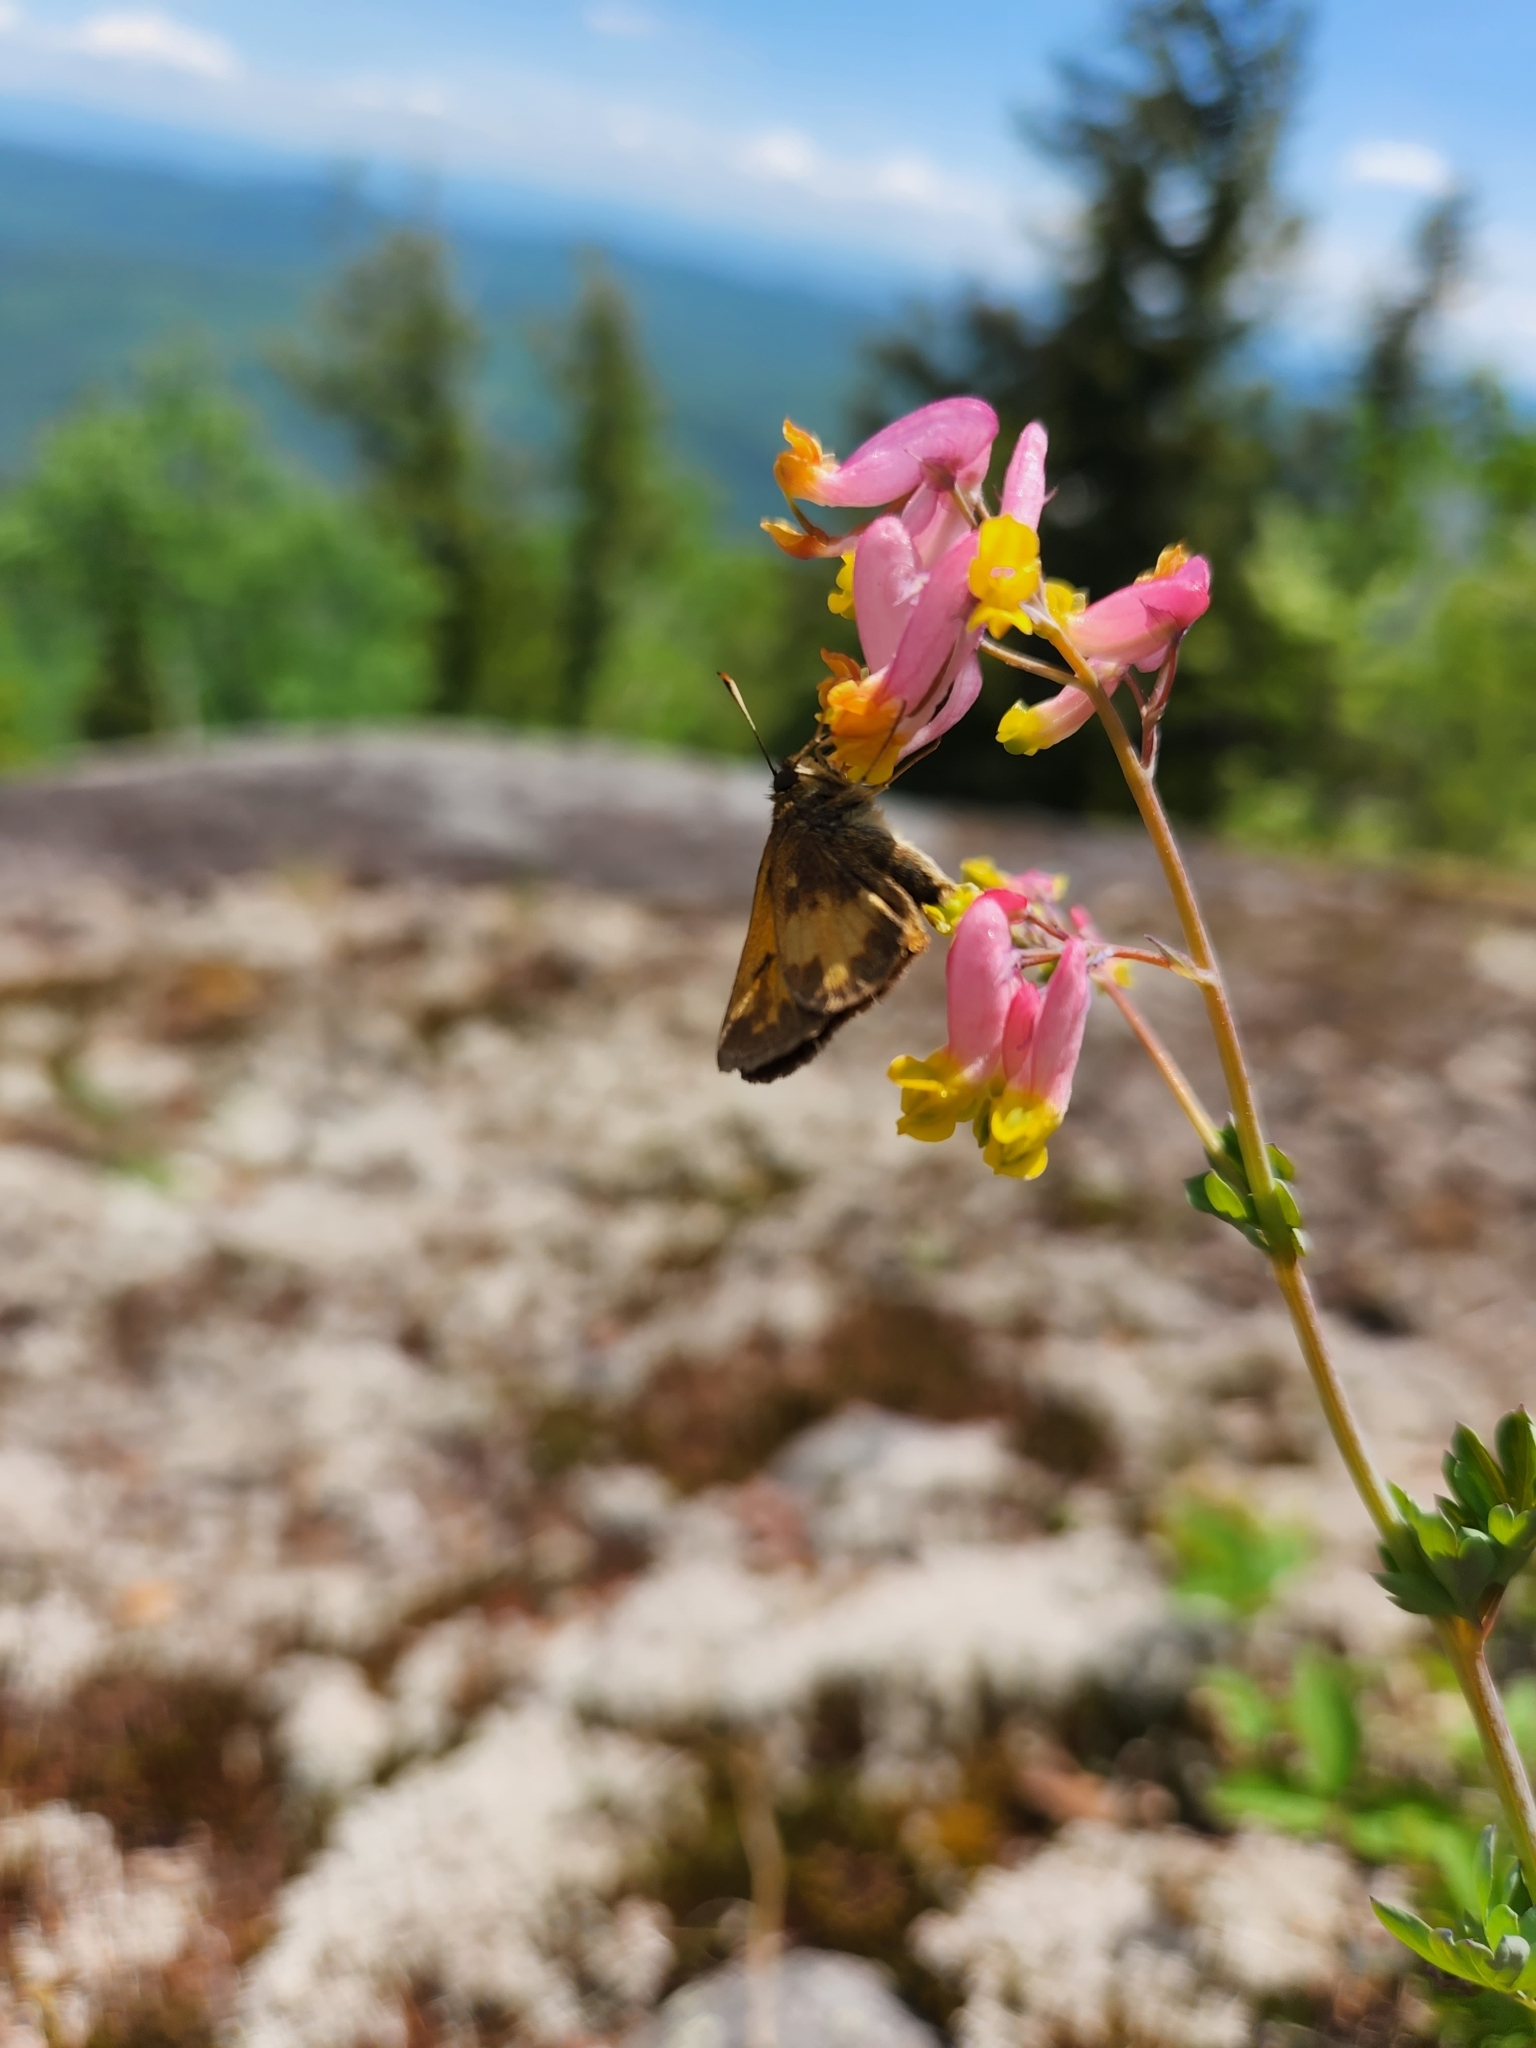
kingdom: Animalia
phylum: Arthropoda
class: Insecta
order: Lepidoptera
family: Hesperiidae
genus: Lon
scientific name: Lon hobomok
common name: Hobomok skipper
